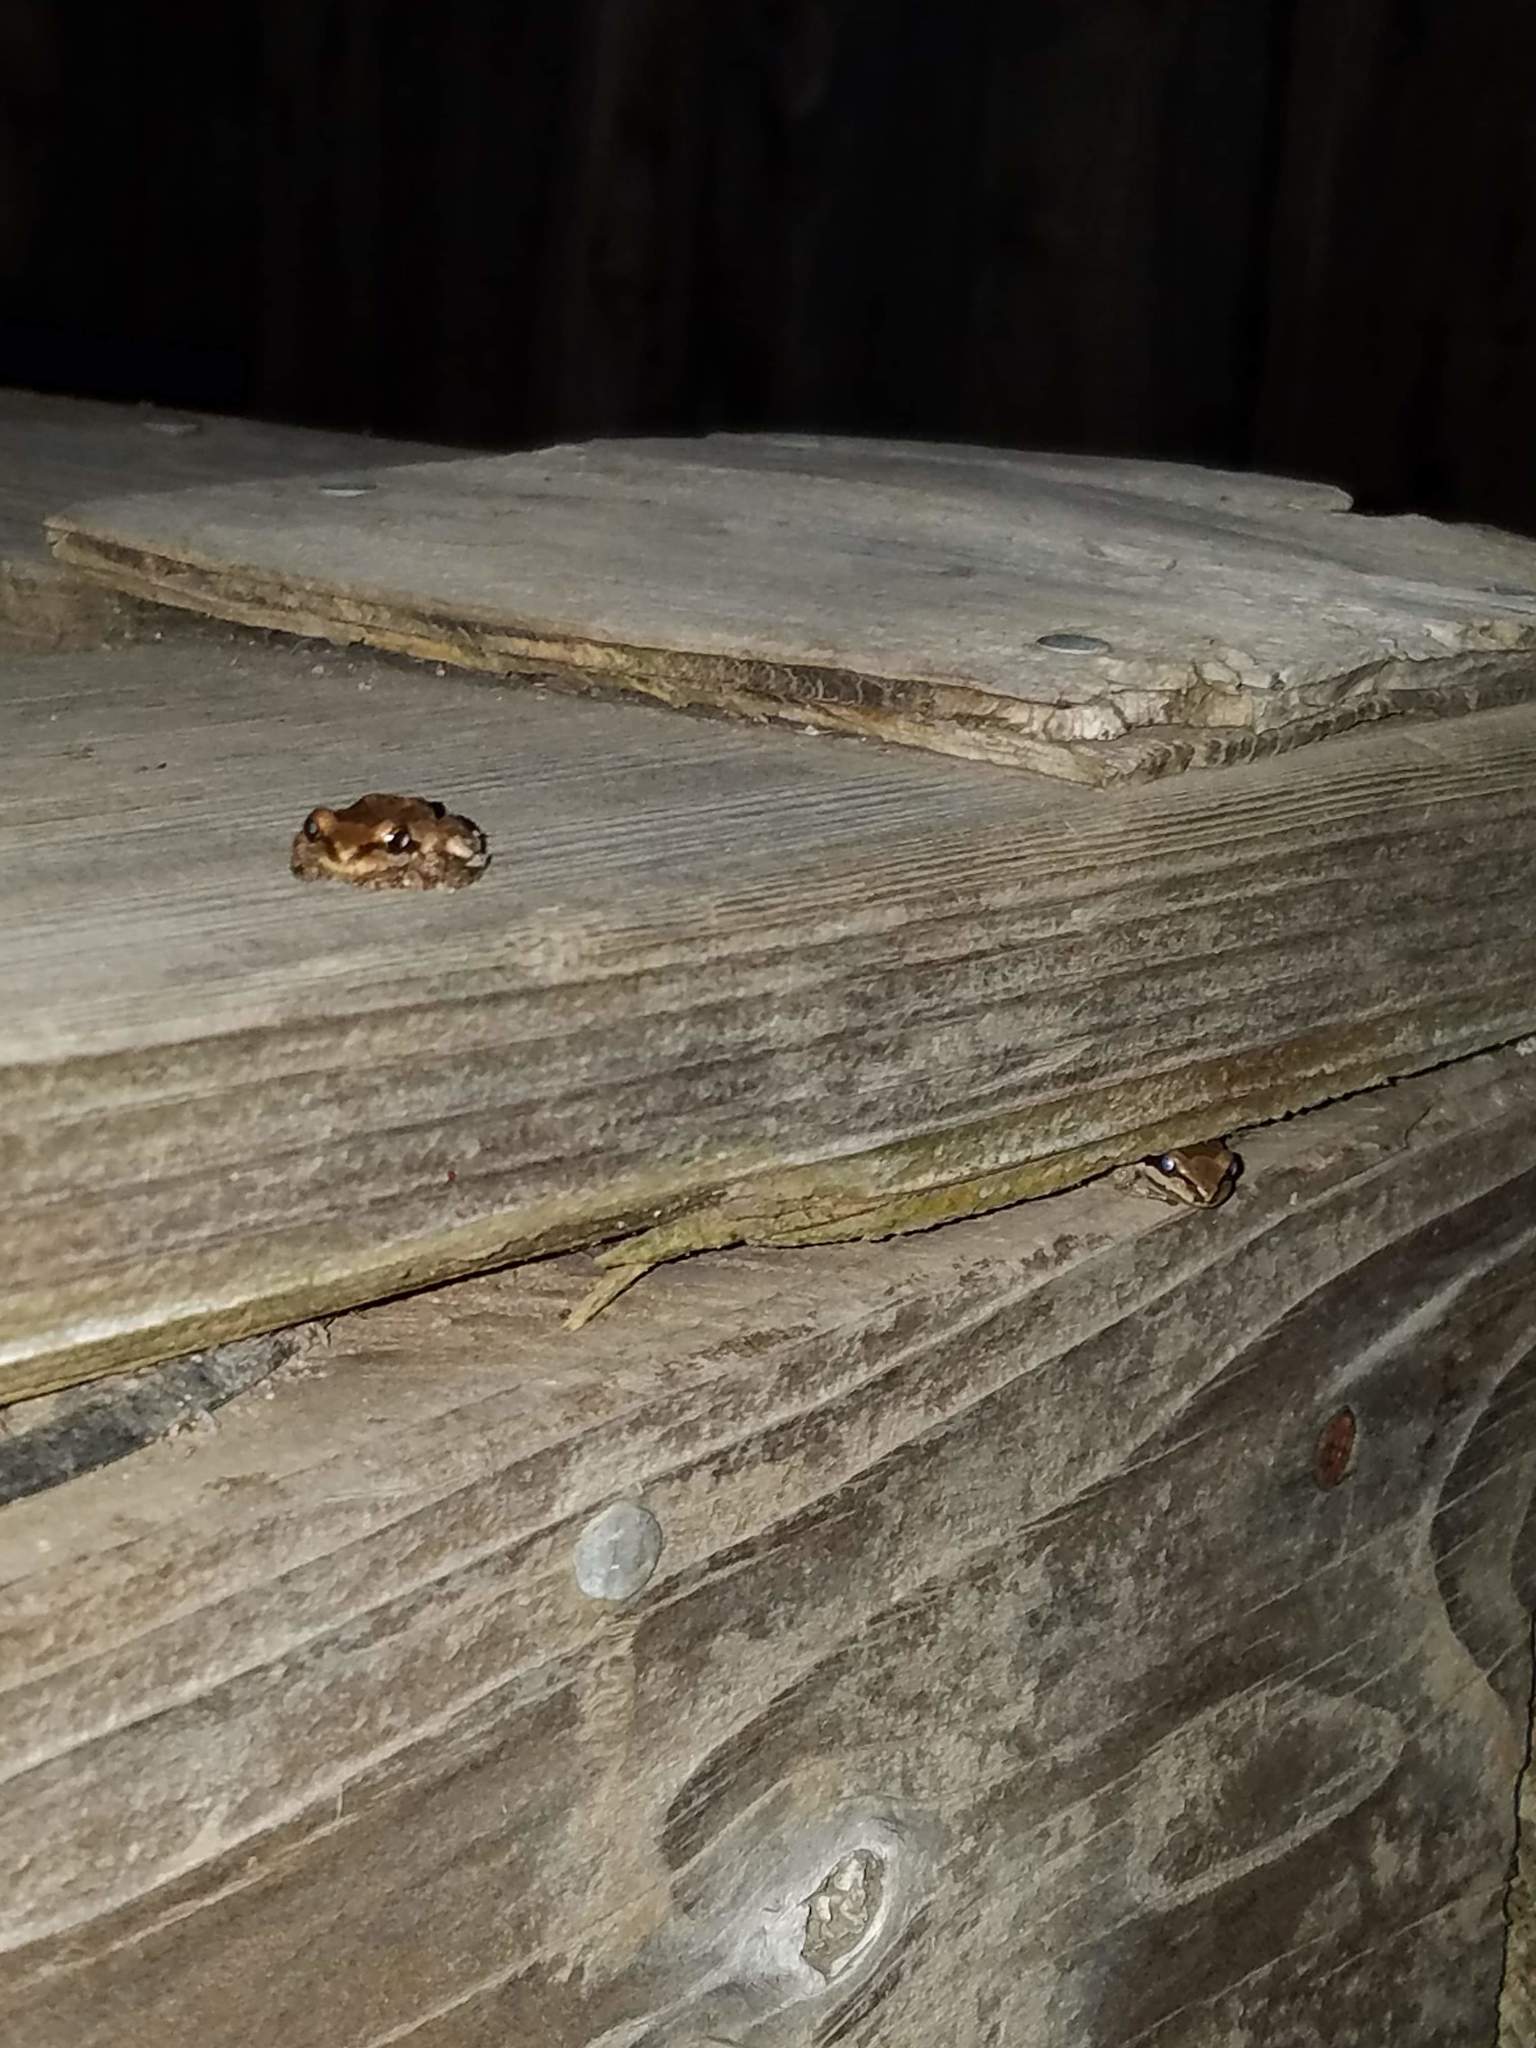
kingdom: Animalia
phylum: Chordata
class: Amphibia
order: Anura
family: Hylidae
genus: Pseudacris
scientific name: Pseudacris regilla
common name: Pacific chorus frog
